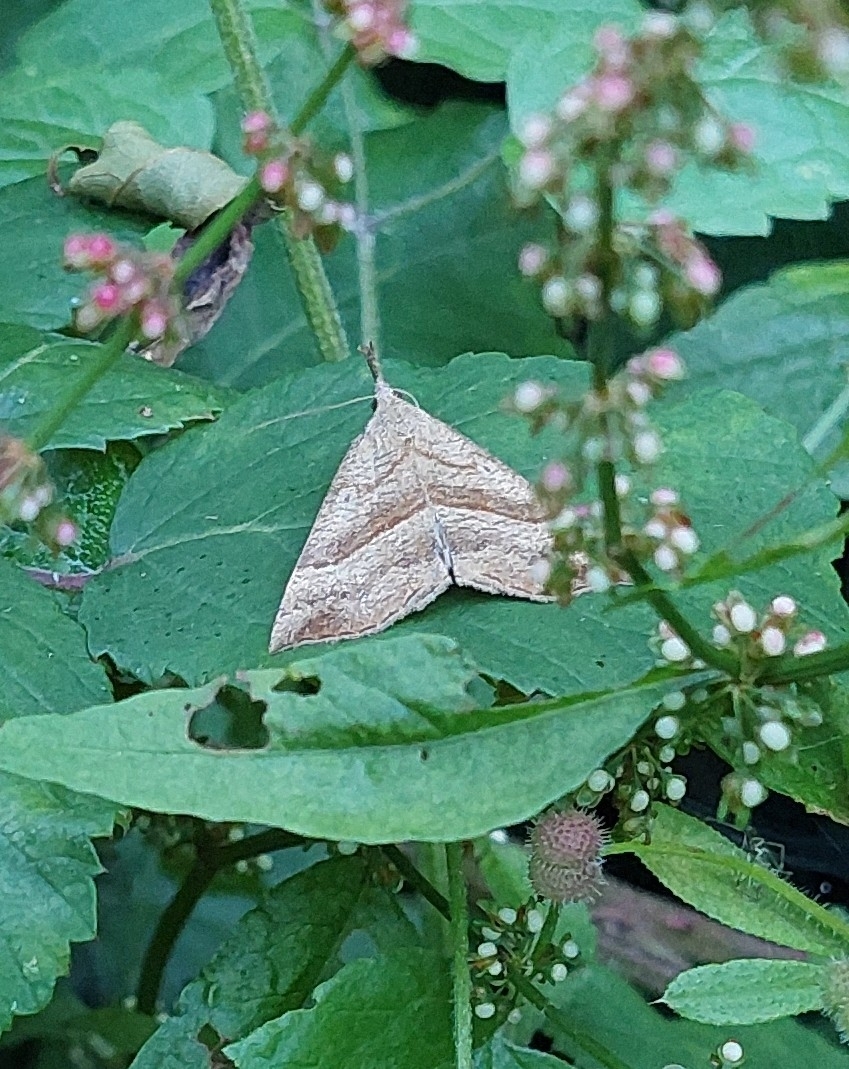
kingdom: Animalia
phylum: Arthropoda
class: Insecta
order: Lepidoptera
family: Erebidae
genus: Hypena
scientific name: Hypena proboscidalis
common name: Snout
